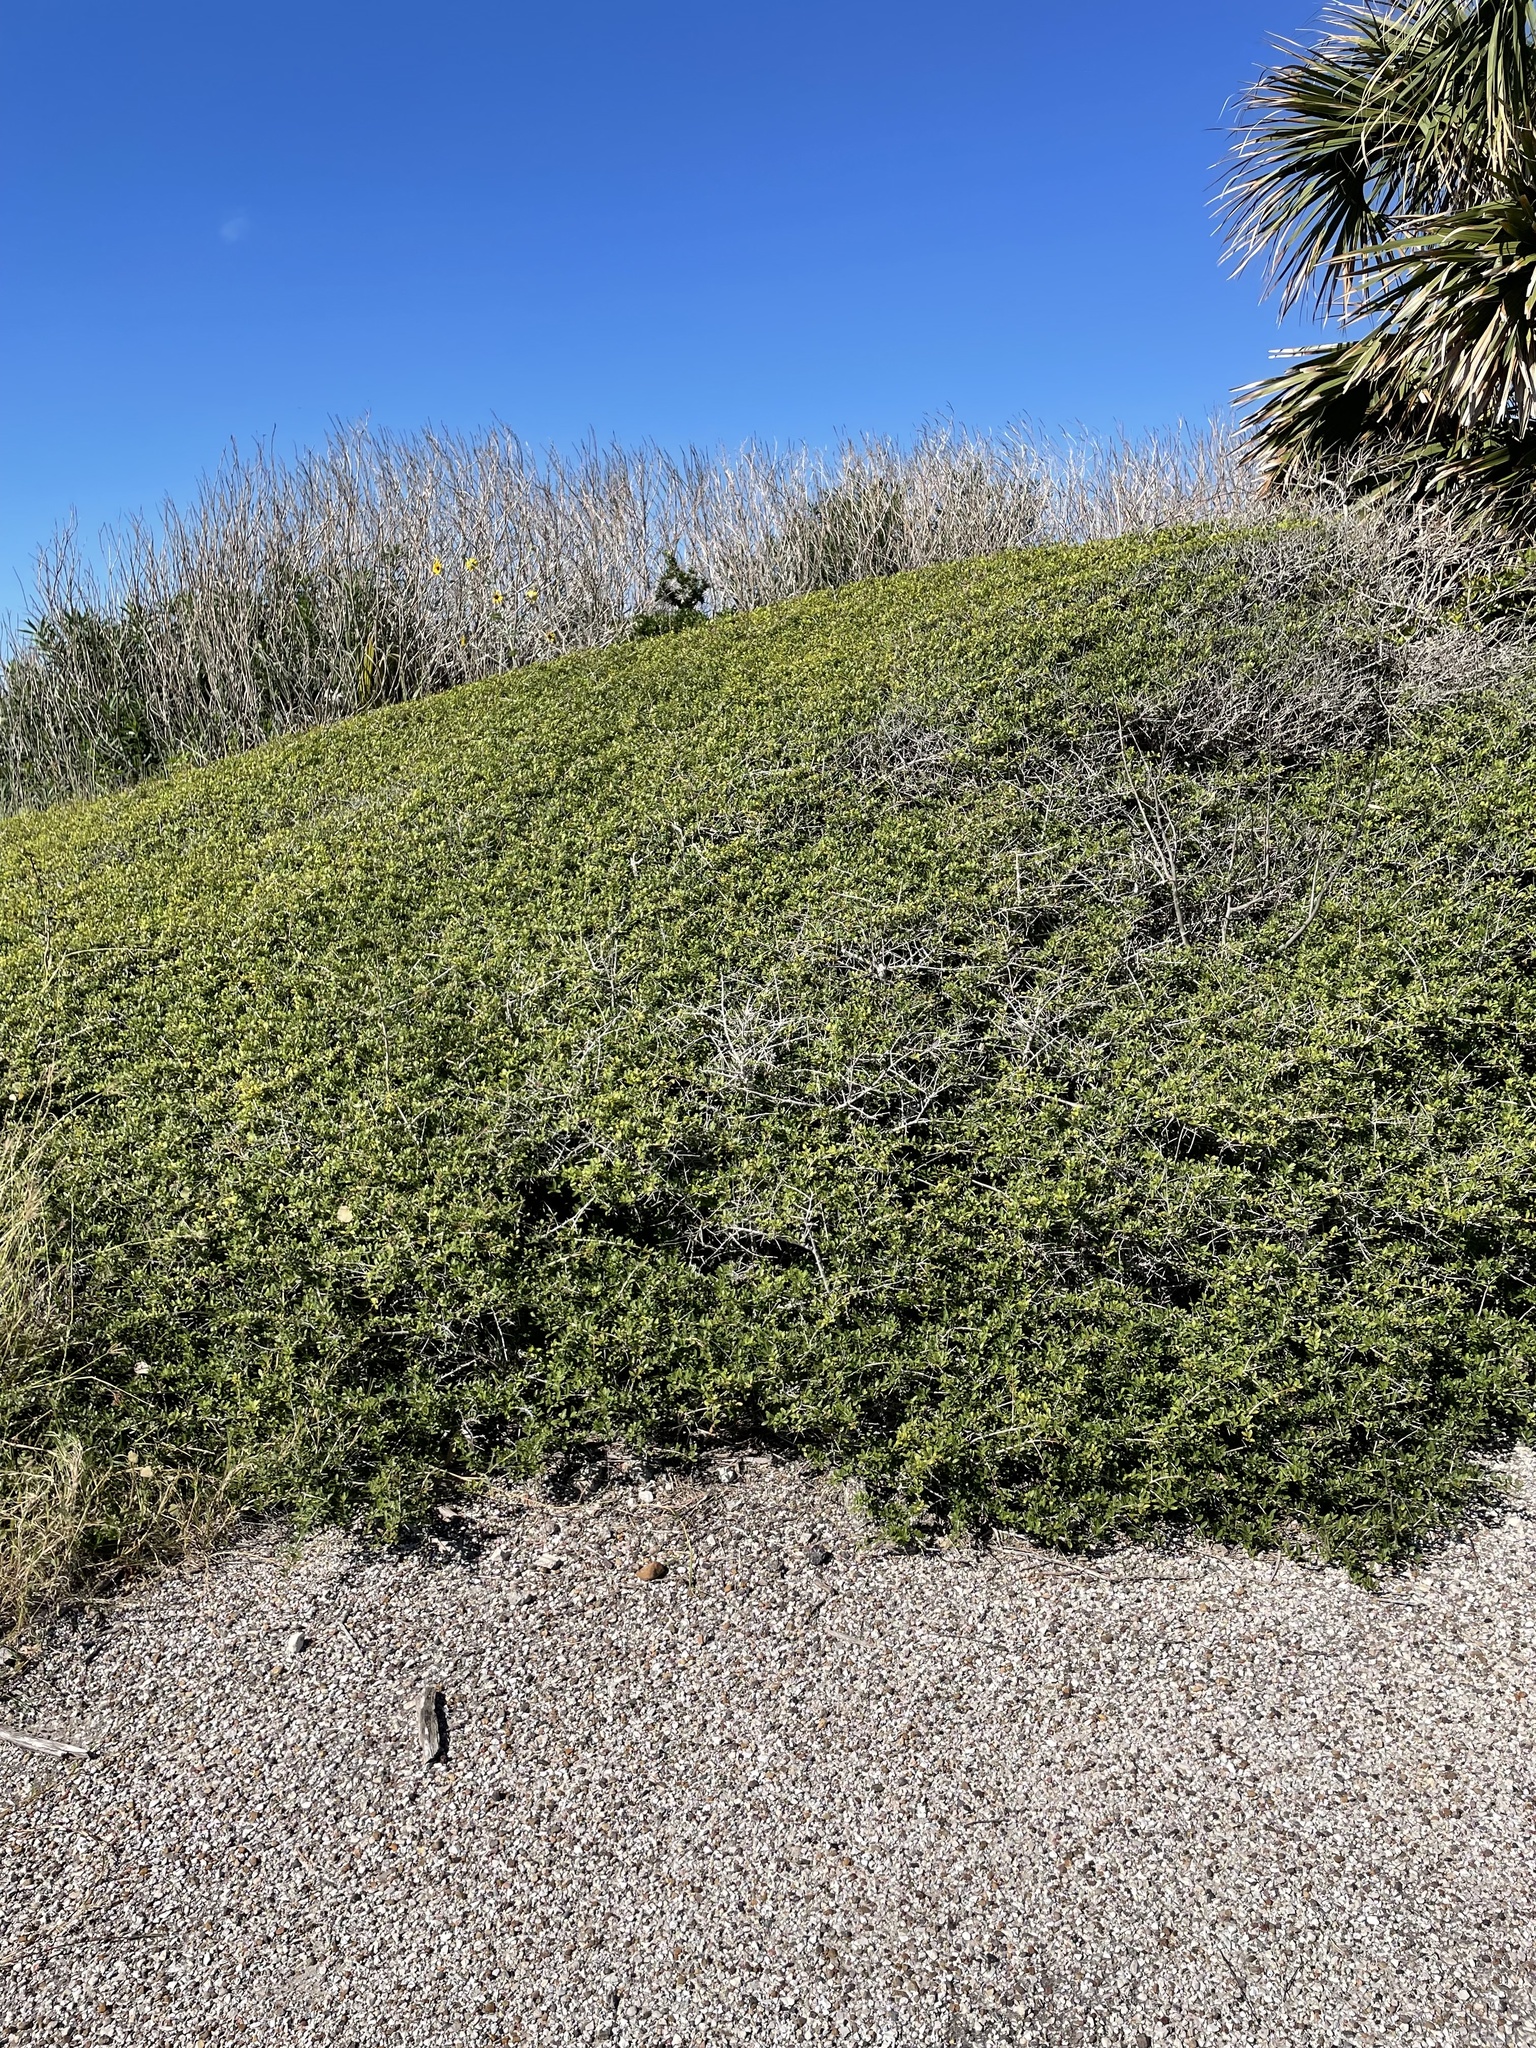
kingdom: Plantae
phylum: Tracheophyta
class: Magnoliopsida
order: Aquifoliales
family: Aquifoliaceae
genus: Ilex
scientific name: Ilex vomitoria
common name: Yaupon holly
